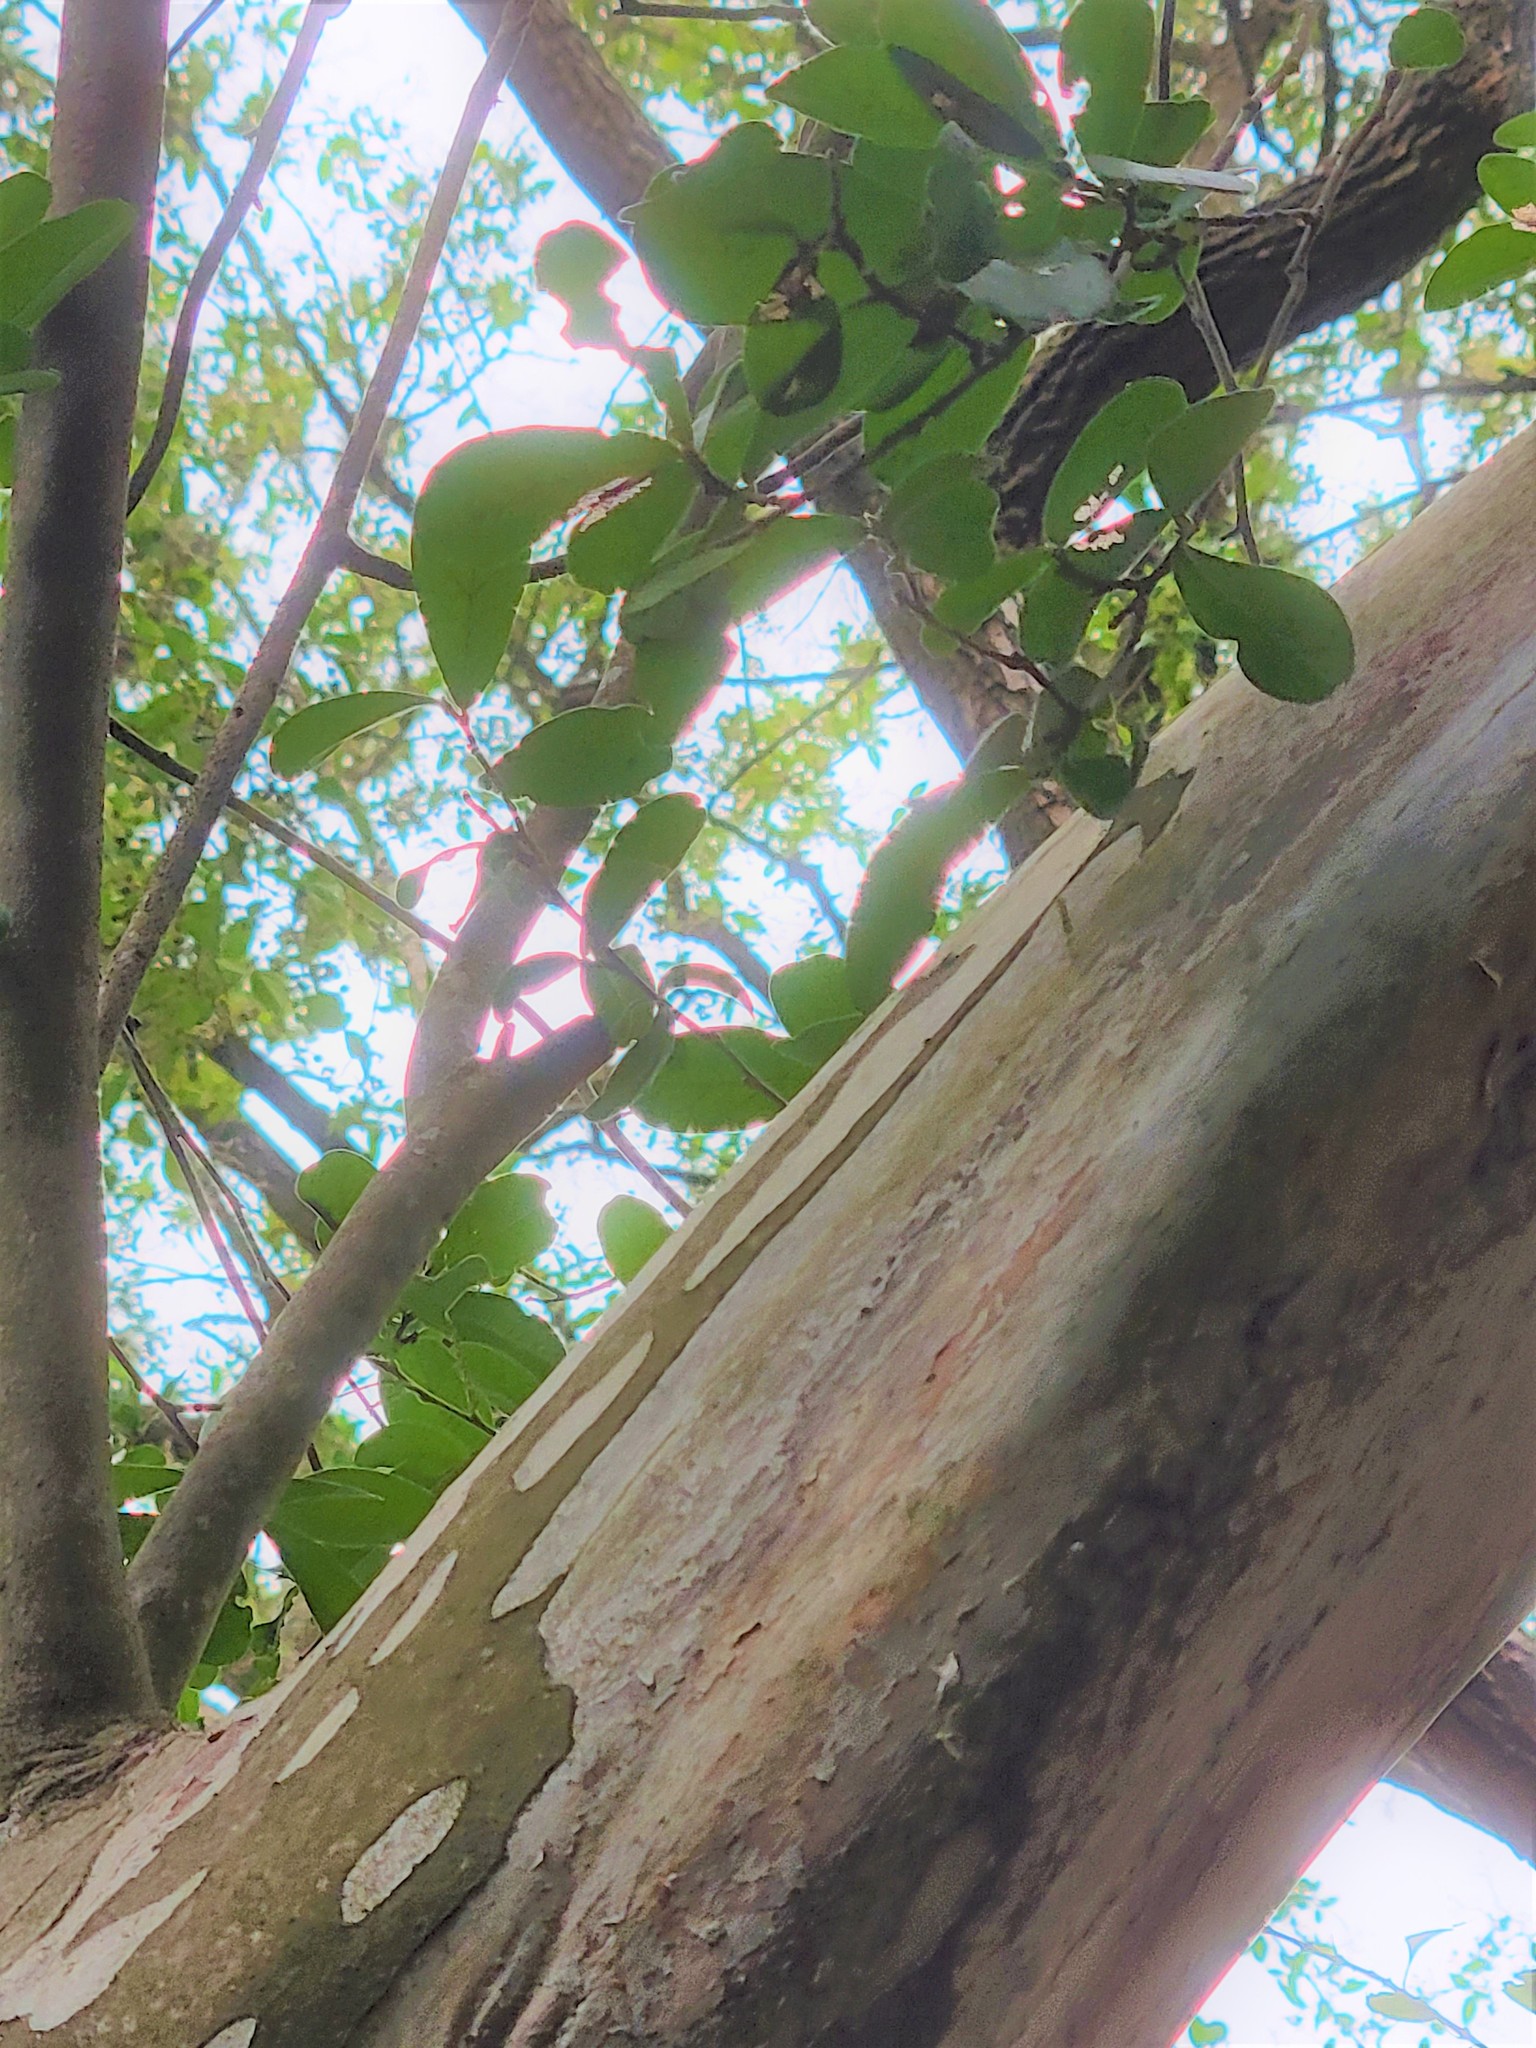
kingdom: Plantae
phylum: Tracheophyta
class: Magnoliopsida
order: Ericales
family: Ebenaceae
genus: Diospyros
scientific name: Diospyros texana
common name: Texas persimmon
